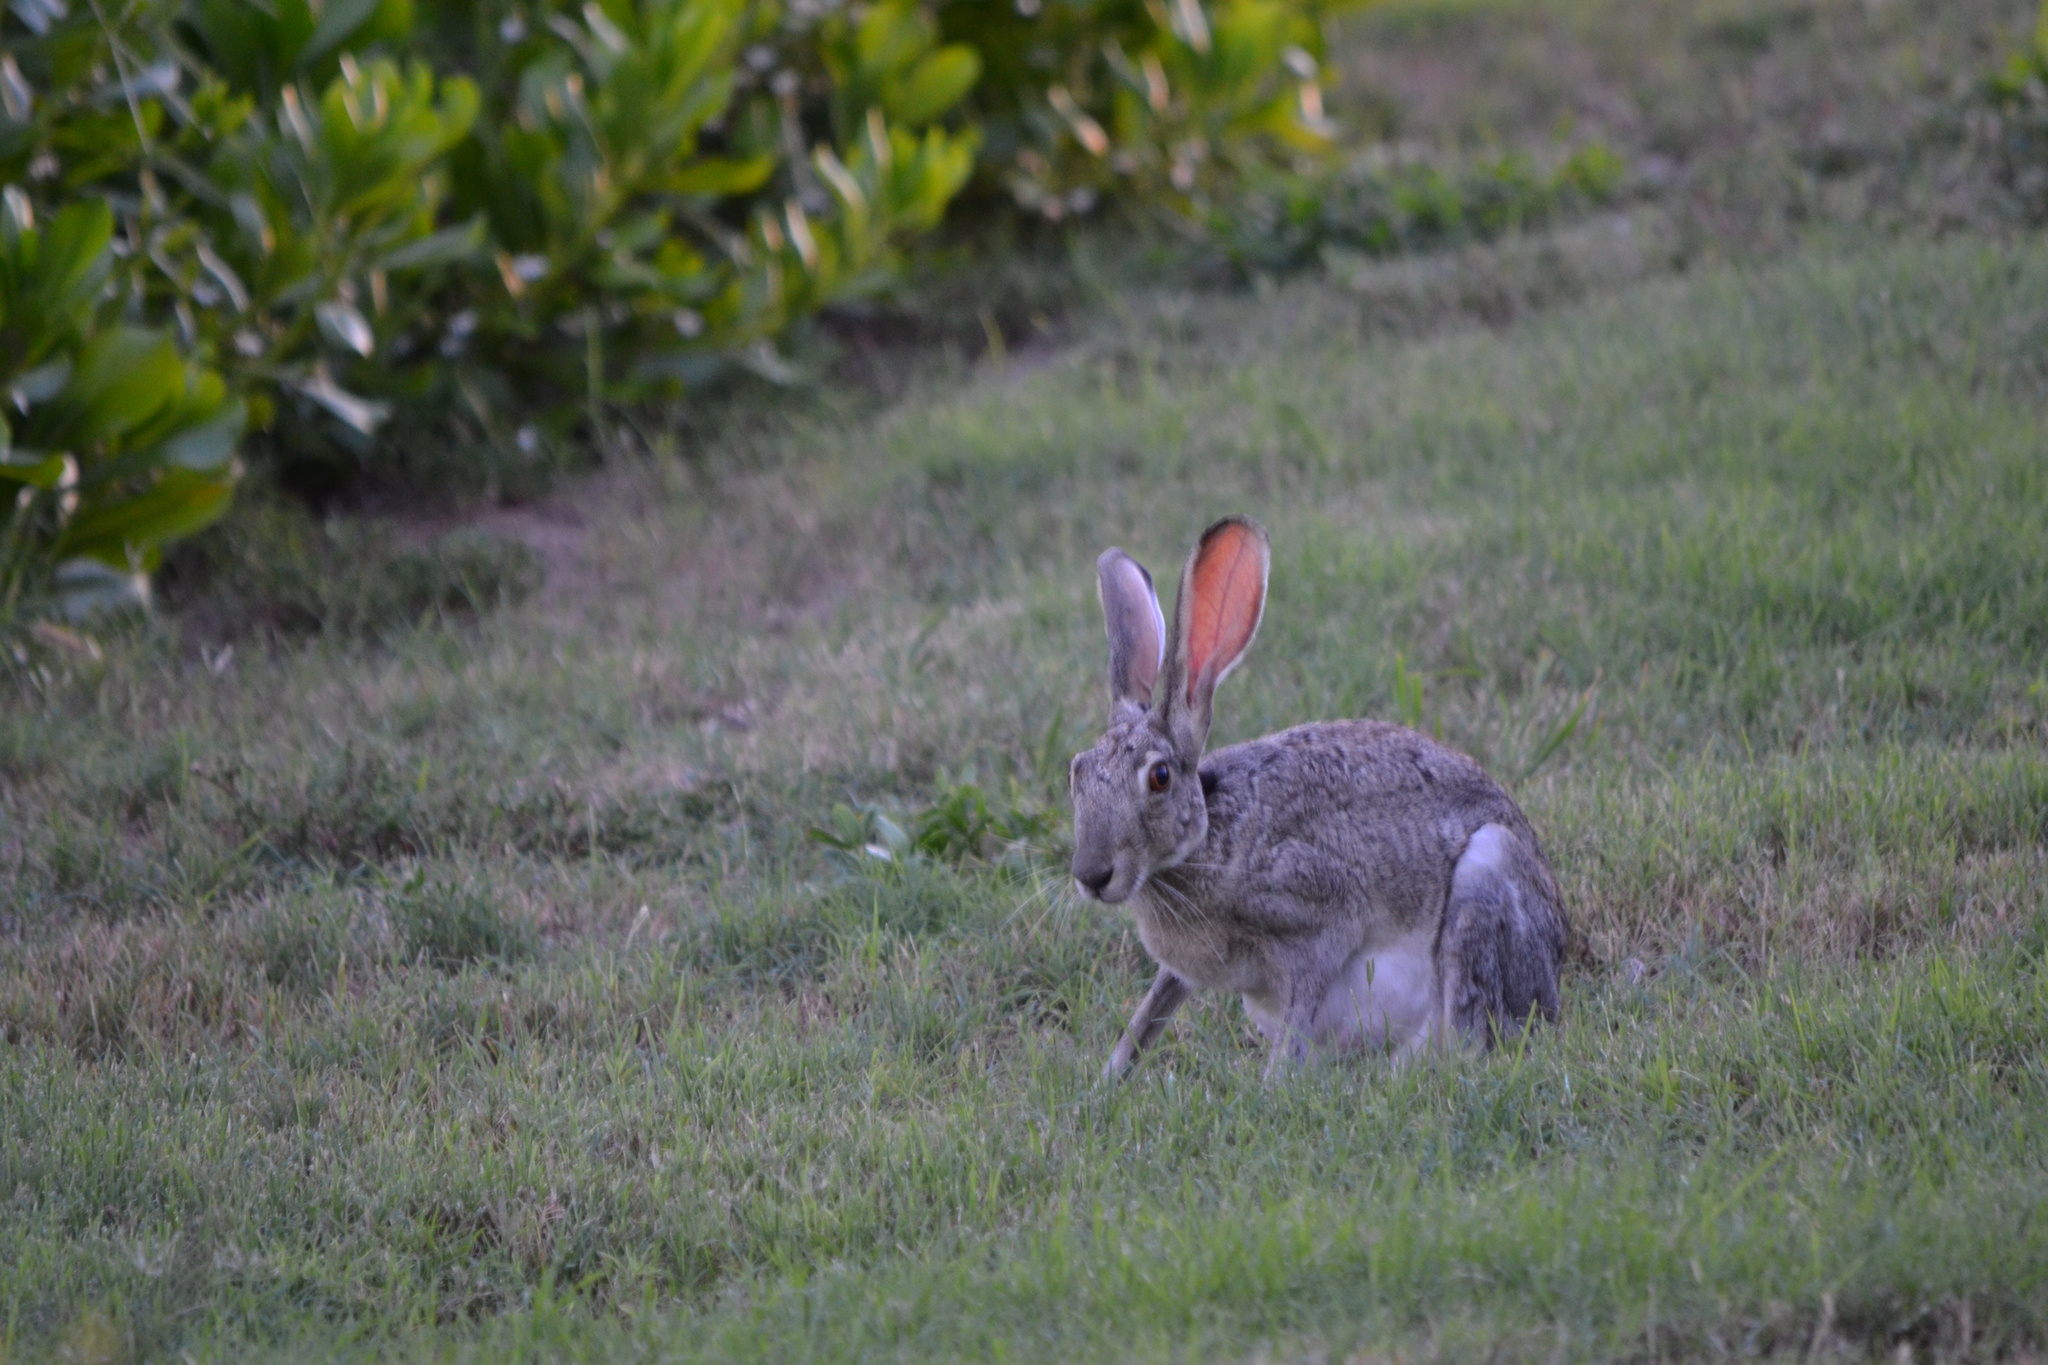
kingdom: Animalia
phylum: Chordata
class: Mammalia
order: Lagomorpha
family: Leporidae
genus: Lepus
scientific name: Lepus californicus
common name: Black-tailed jackrabbit
